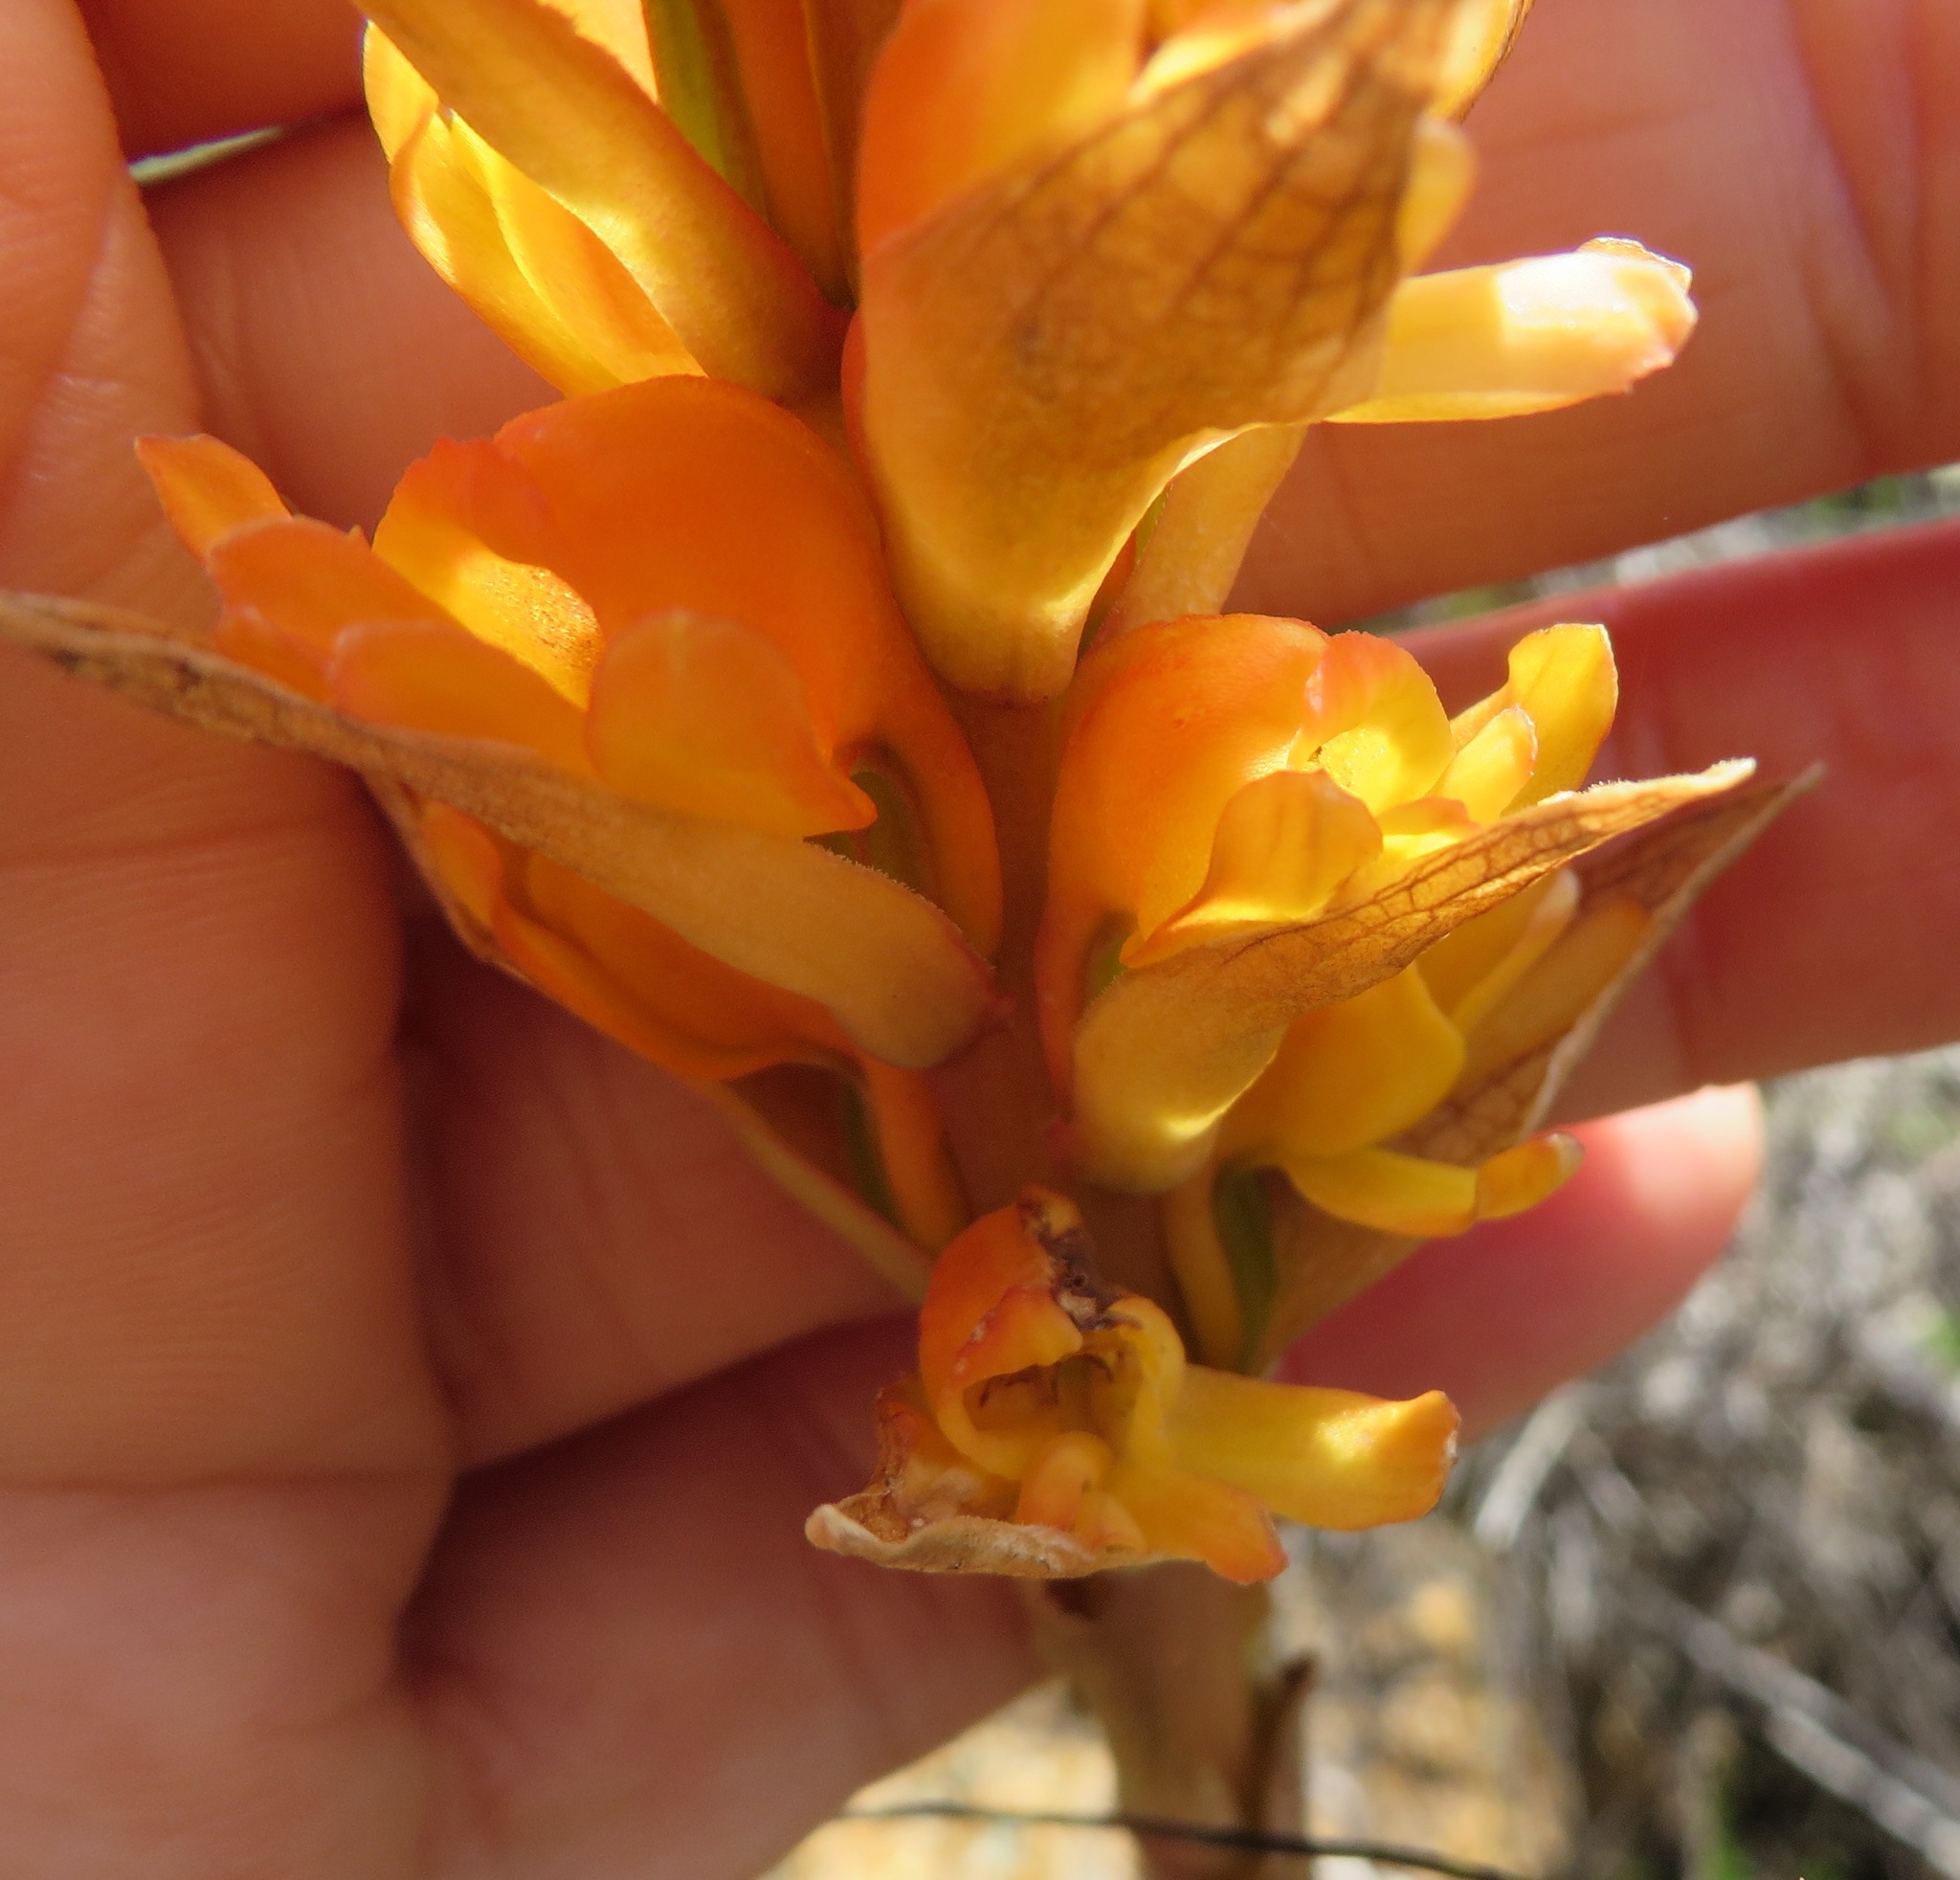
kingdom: Plantae
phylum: Tracheophyta
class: Liliopsida
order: Asparagales
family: Orchidaceae
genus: Satyrium
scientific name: Satyrium coriifolium
